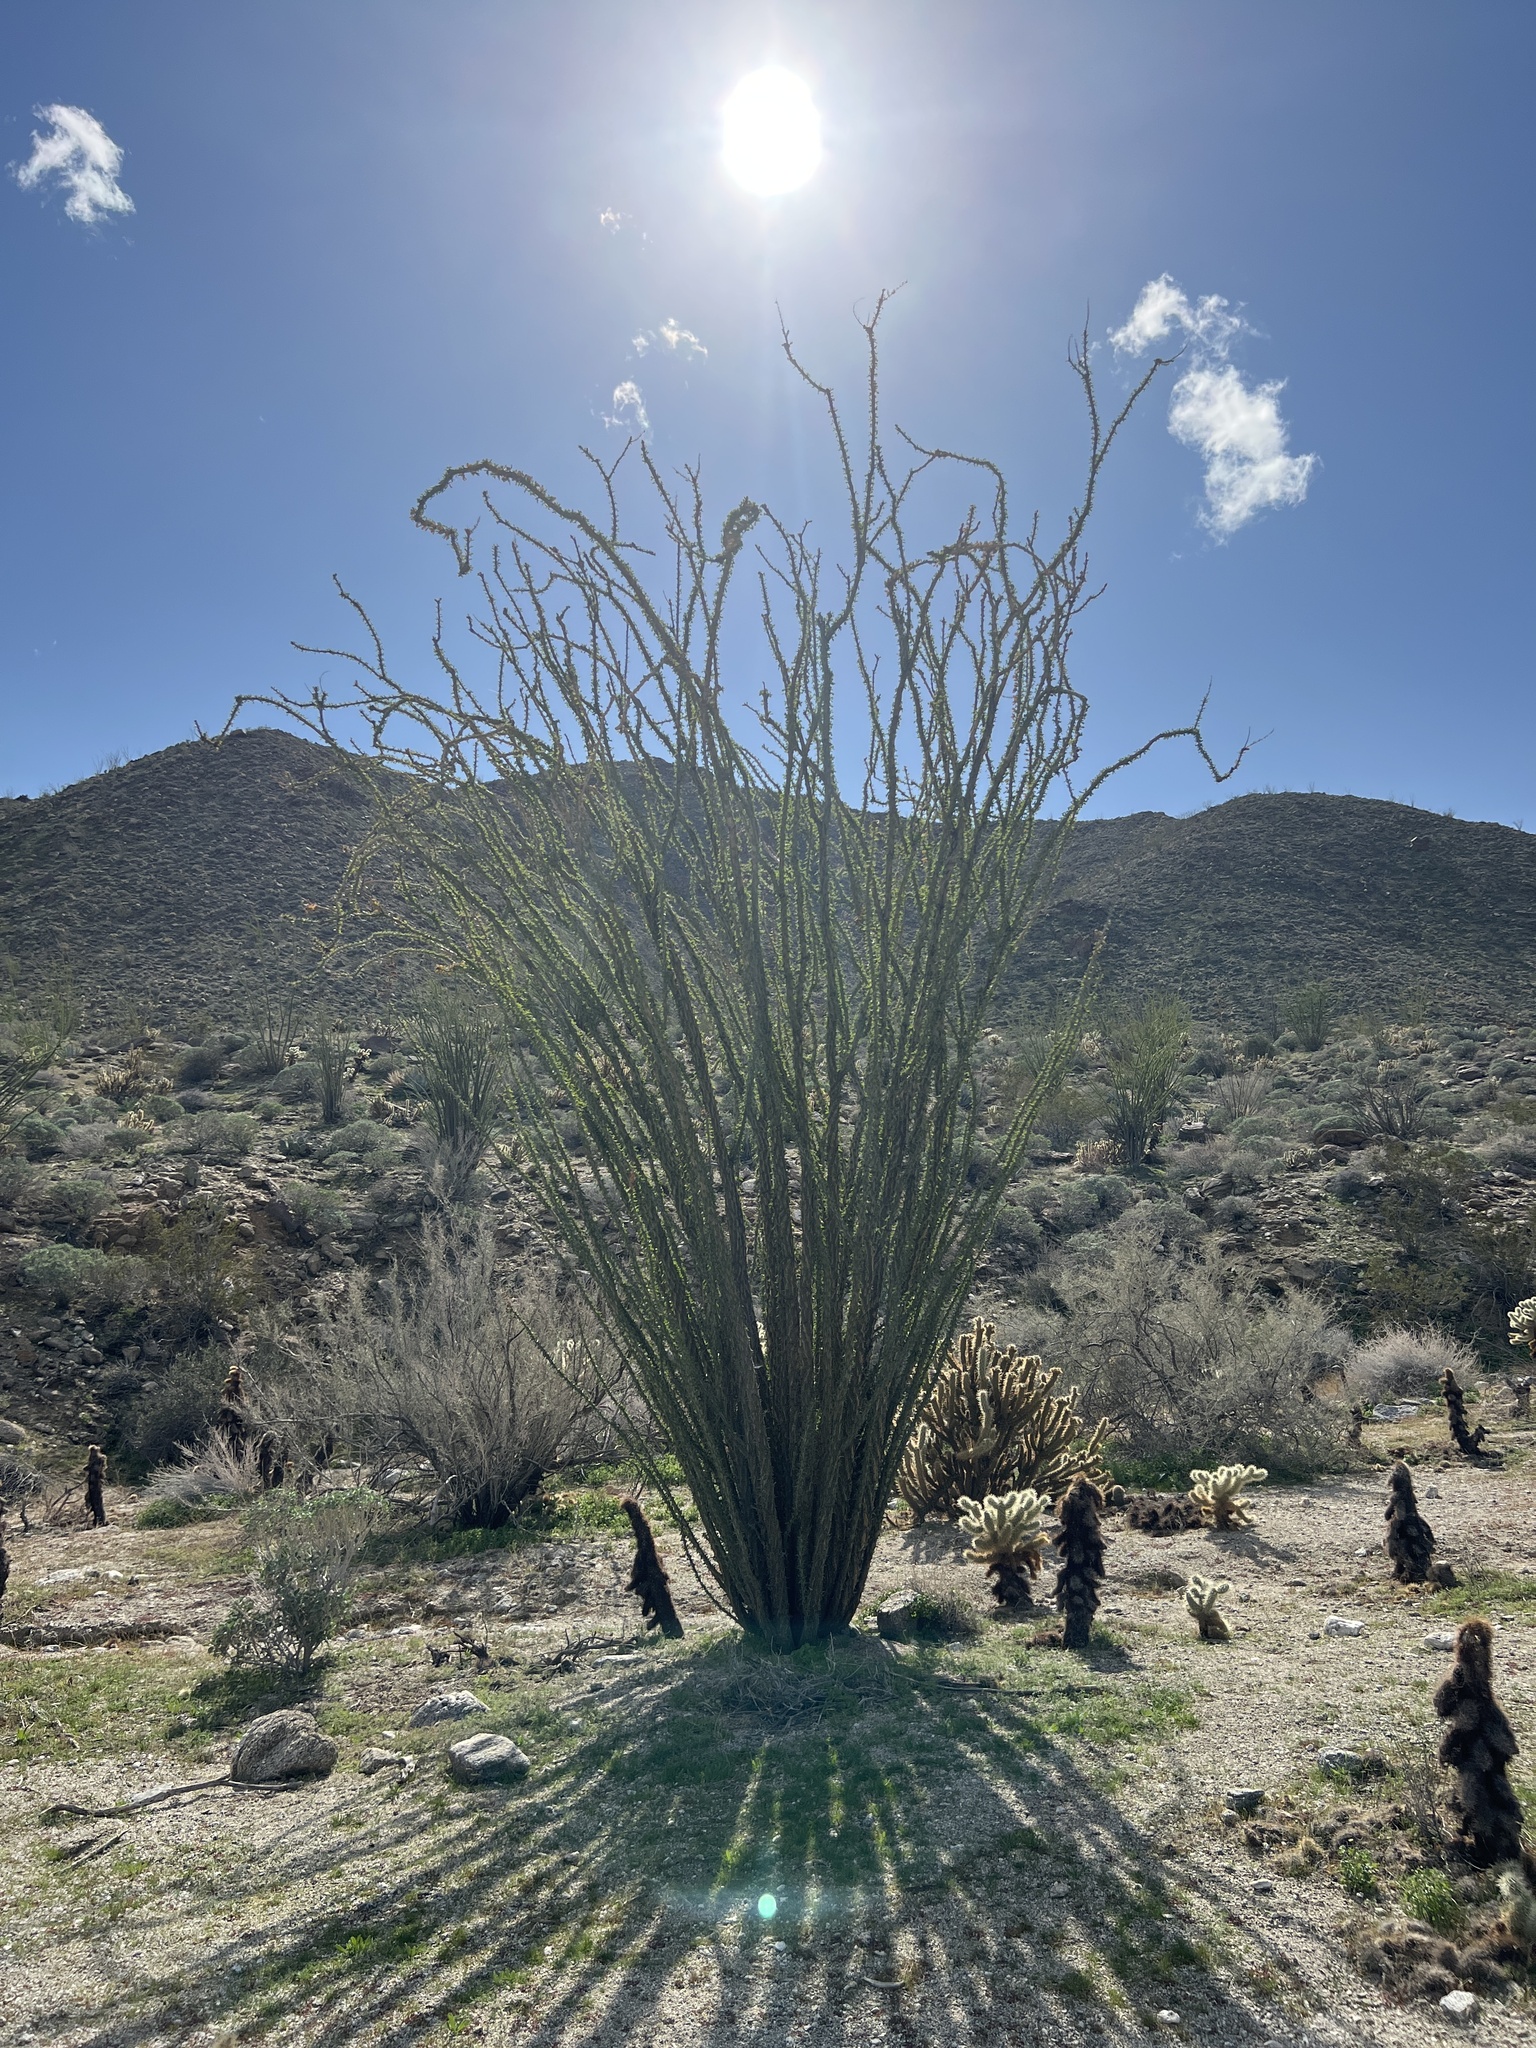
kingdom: Plantae
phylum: Tracheophyta
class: Magnoliopsida
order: Ericales
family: Fouquieriaceae
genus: Fouquieria
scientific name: Fouquieria splendens
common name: Vine-cactus
